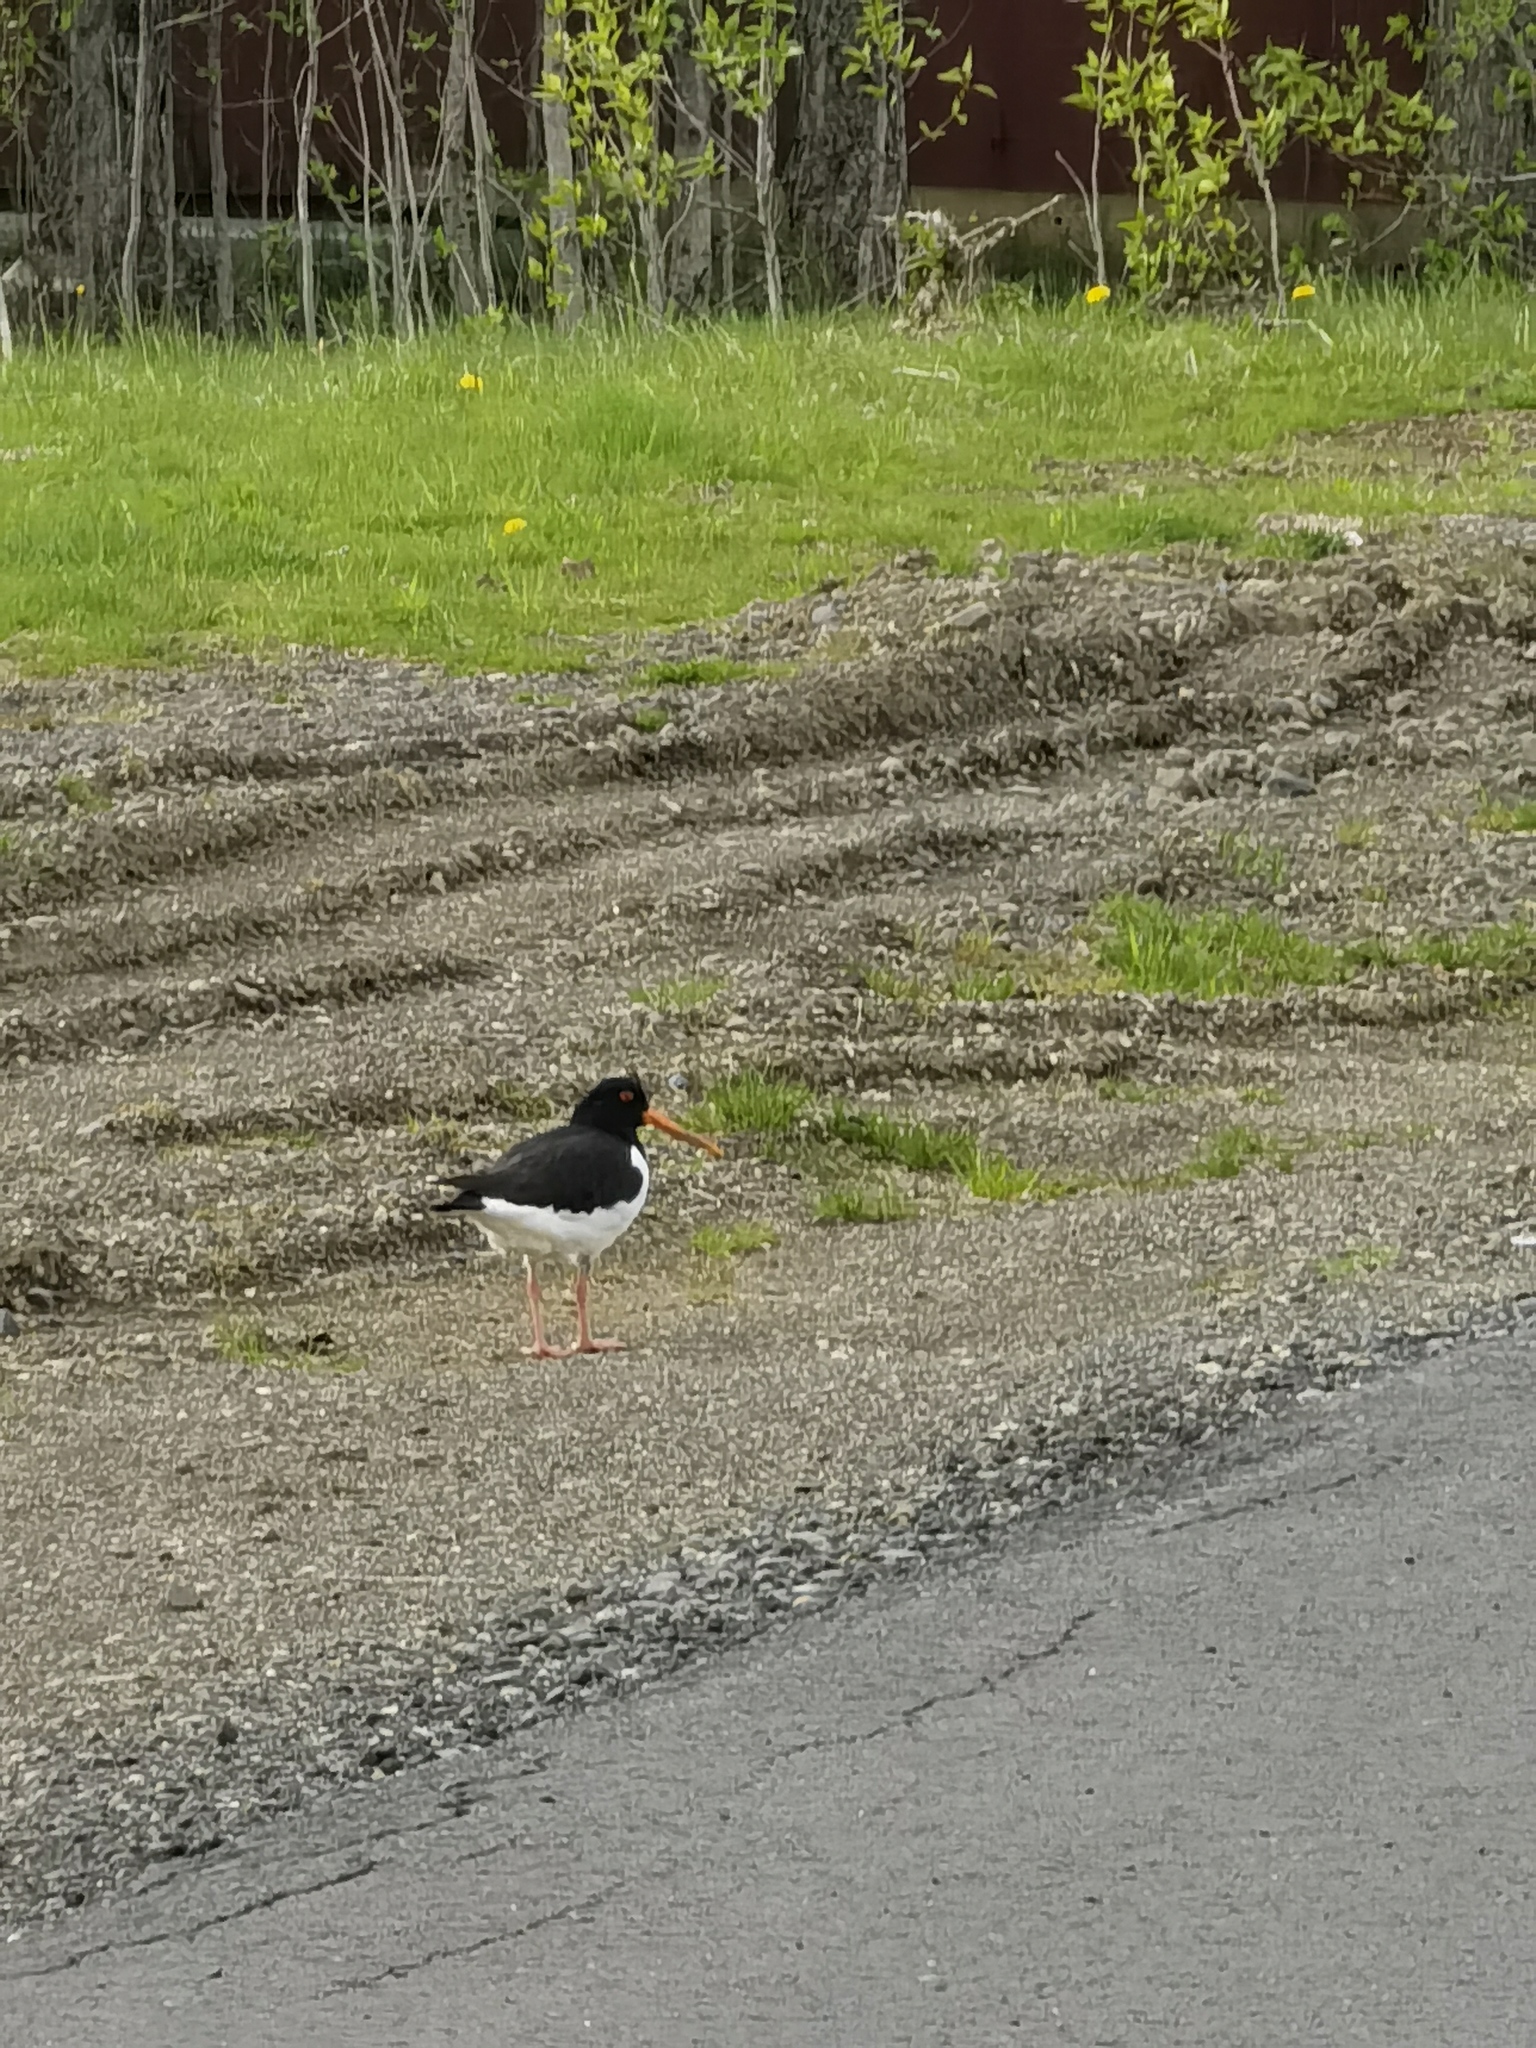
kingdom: Animalia
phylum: Chordata
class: Aves
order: Charadriiformes
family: Haematopodidae
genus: Haematopus
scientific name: Haematopus ostralegus
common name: Eurasian oystercatcher
